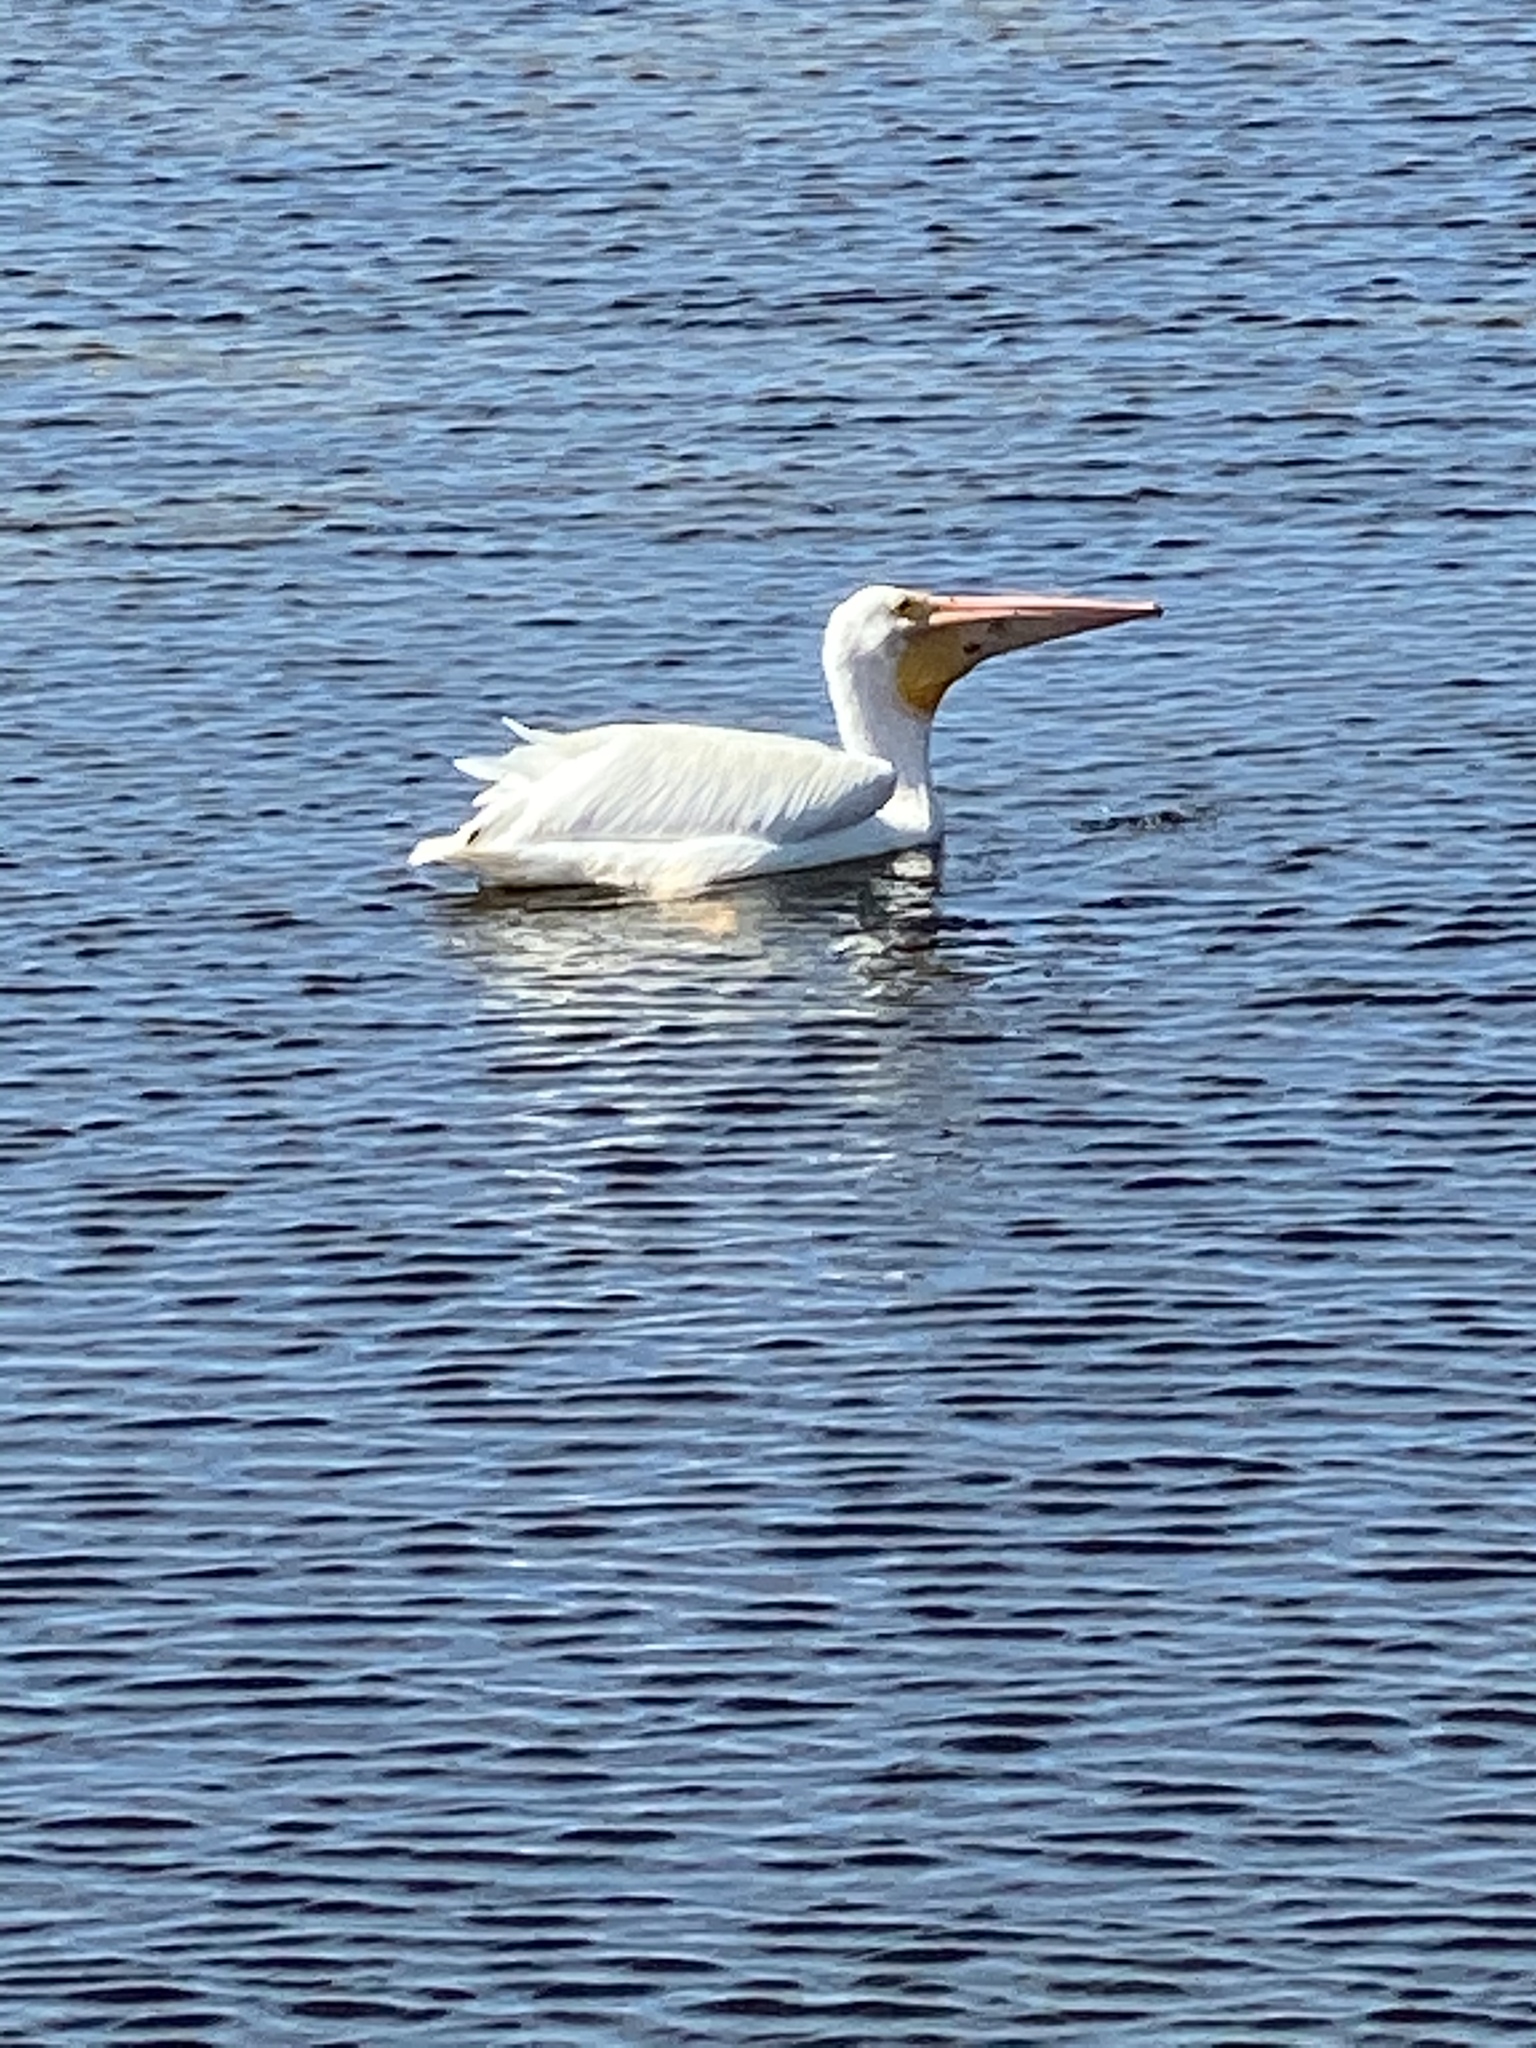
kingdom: Animalia
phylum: Chordata
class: Aves
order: Pelecaniformes
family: Pelecanidae
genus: Pelecanus
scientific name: Pelecanus erythrorhynchos
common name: American white pelican
